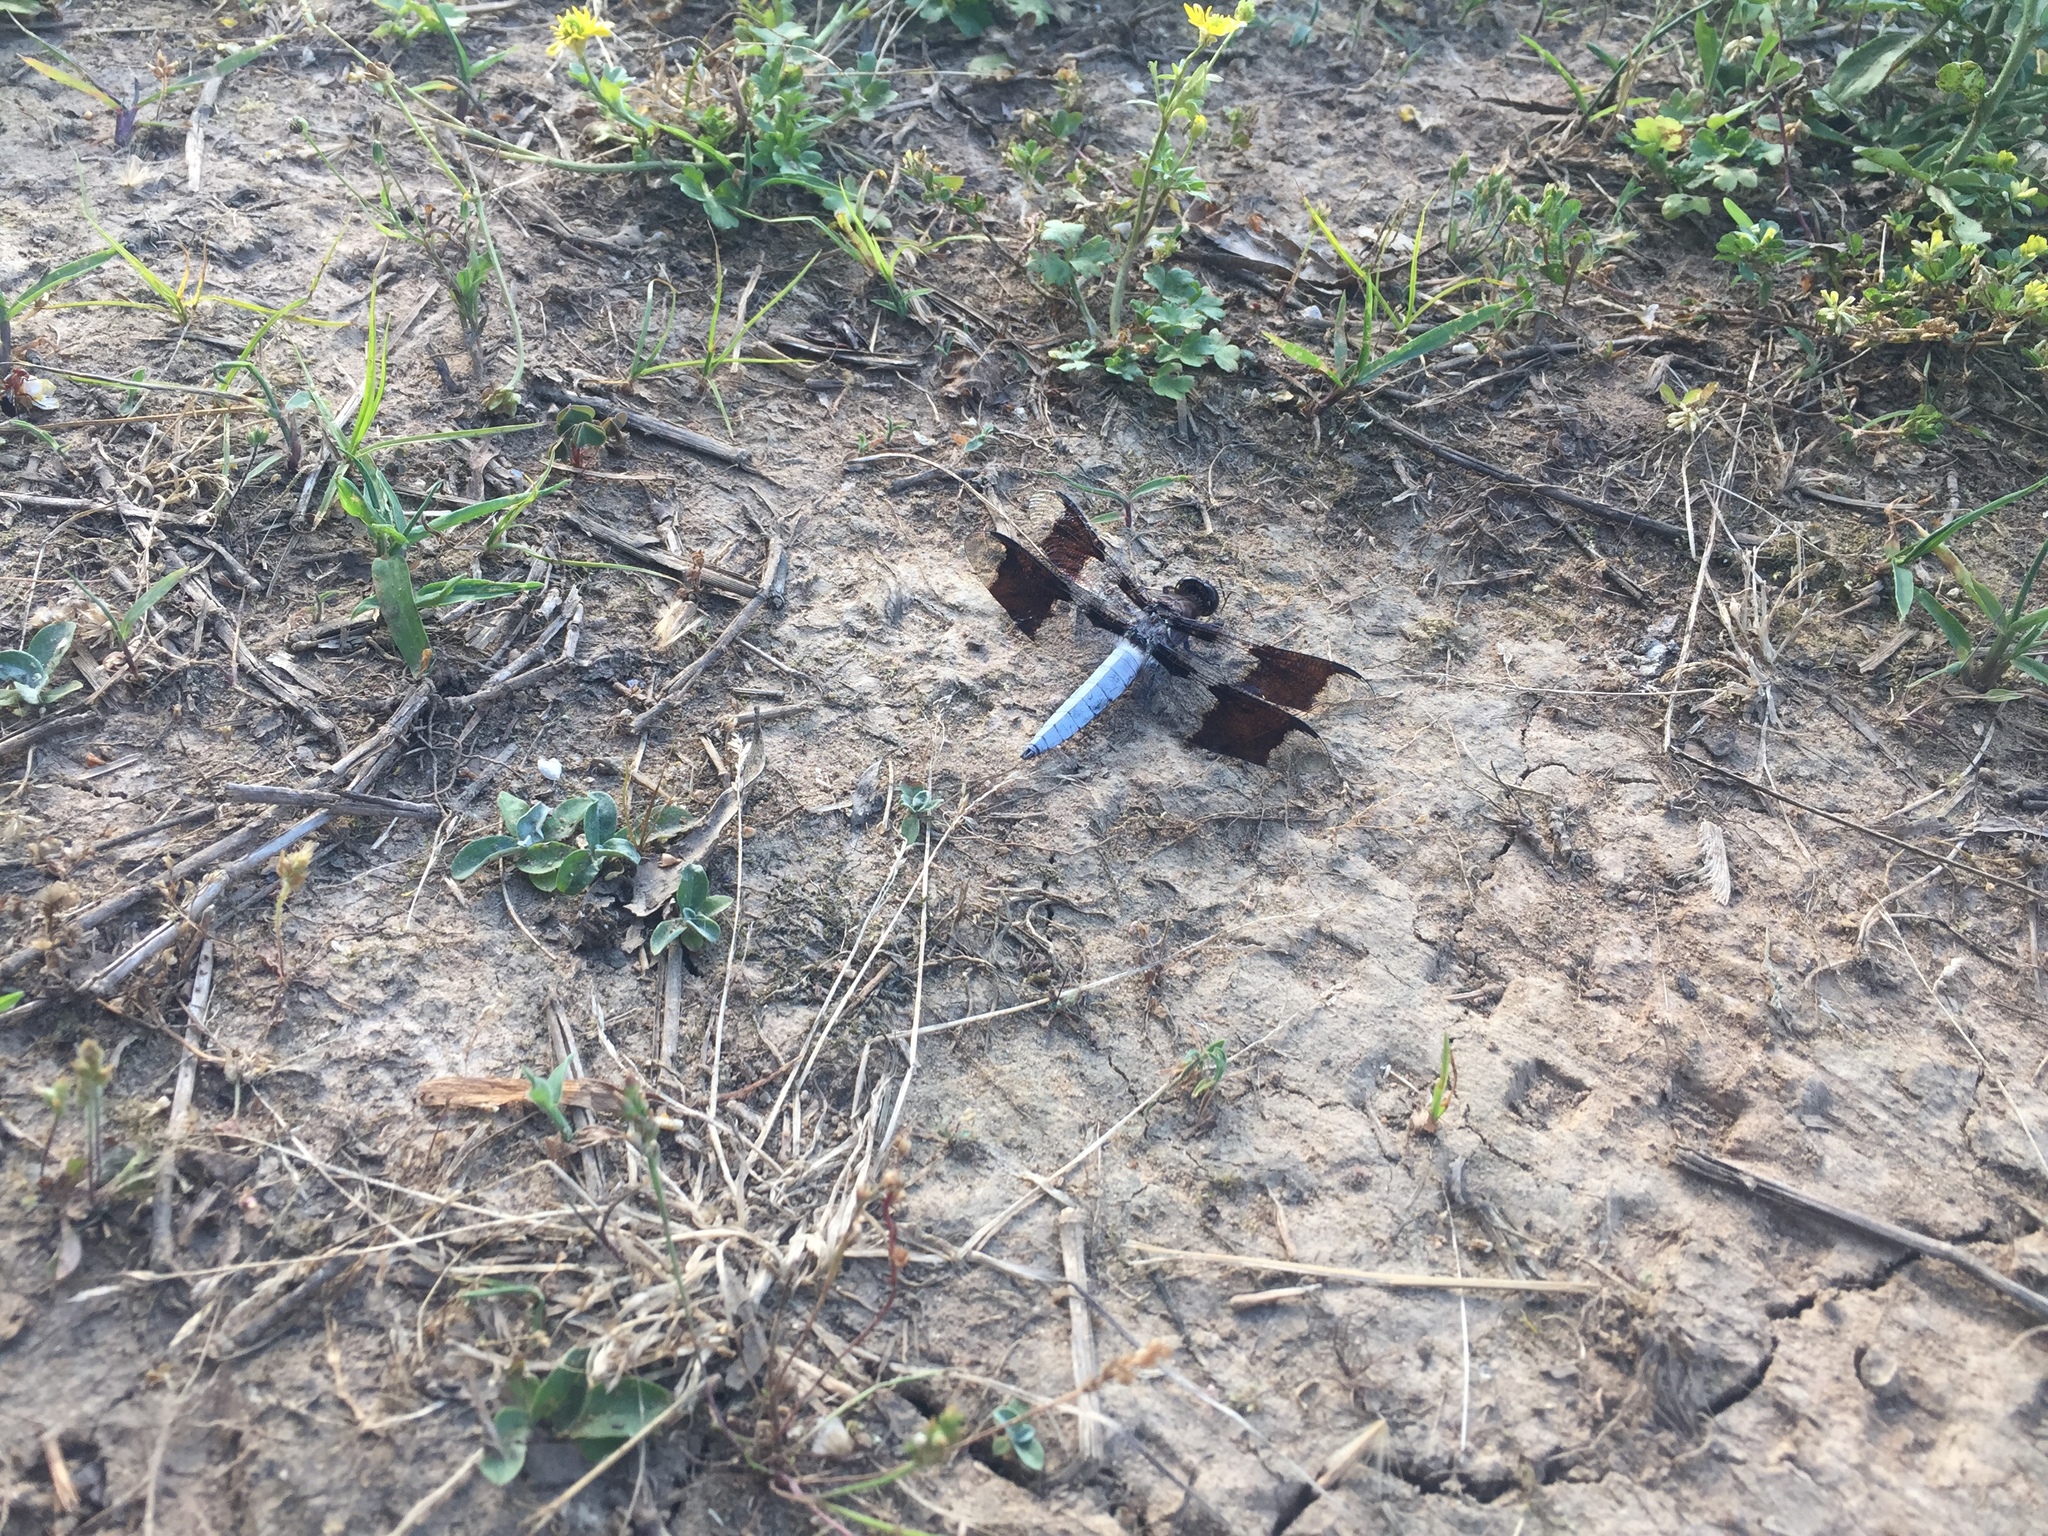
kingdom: Animalia
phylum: Arthropoda
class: Insecta
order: Odonata
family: Libellulidae
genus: Plathemis
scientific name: Plathemis lydia
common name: Common whitetail
